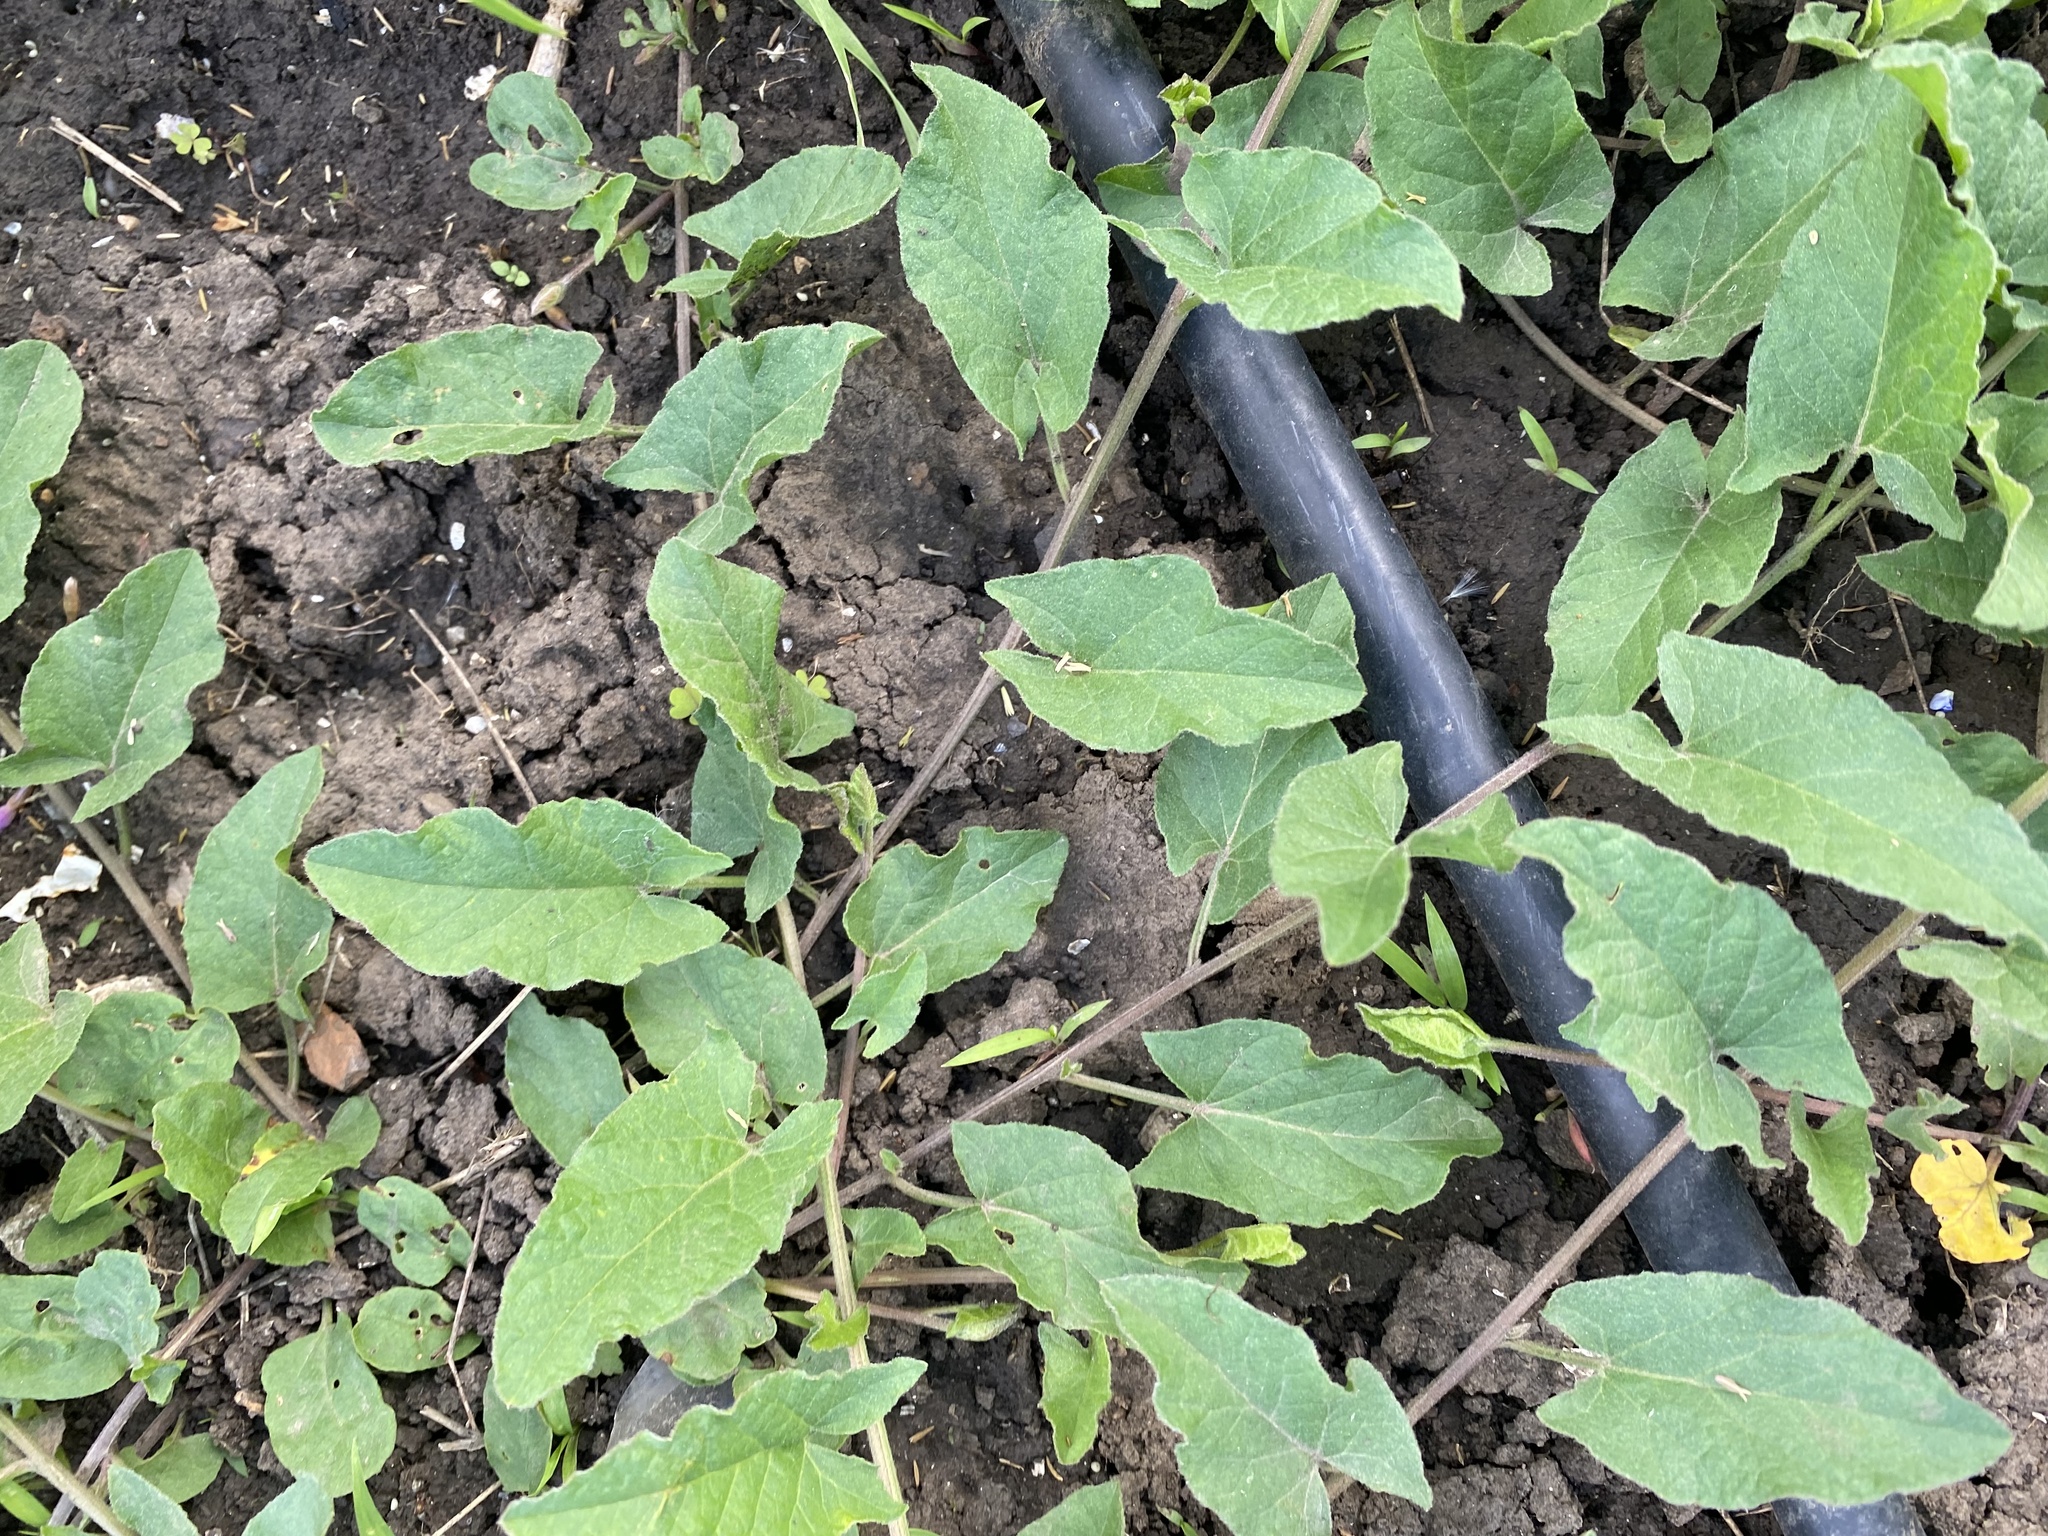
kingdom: Plantae
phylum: Tracheophyta
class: Magnoliopsida
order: Solanales
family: Convolvulaceae
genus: Convolvulus
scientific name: Convolvulus arvensis
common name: Field bindweed
